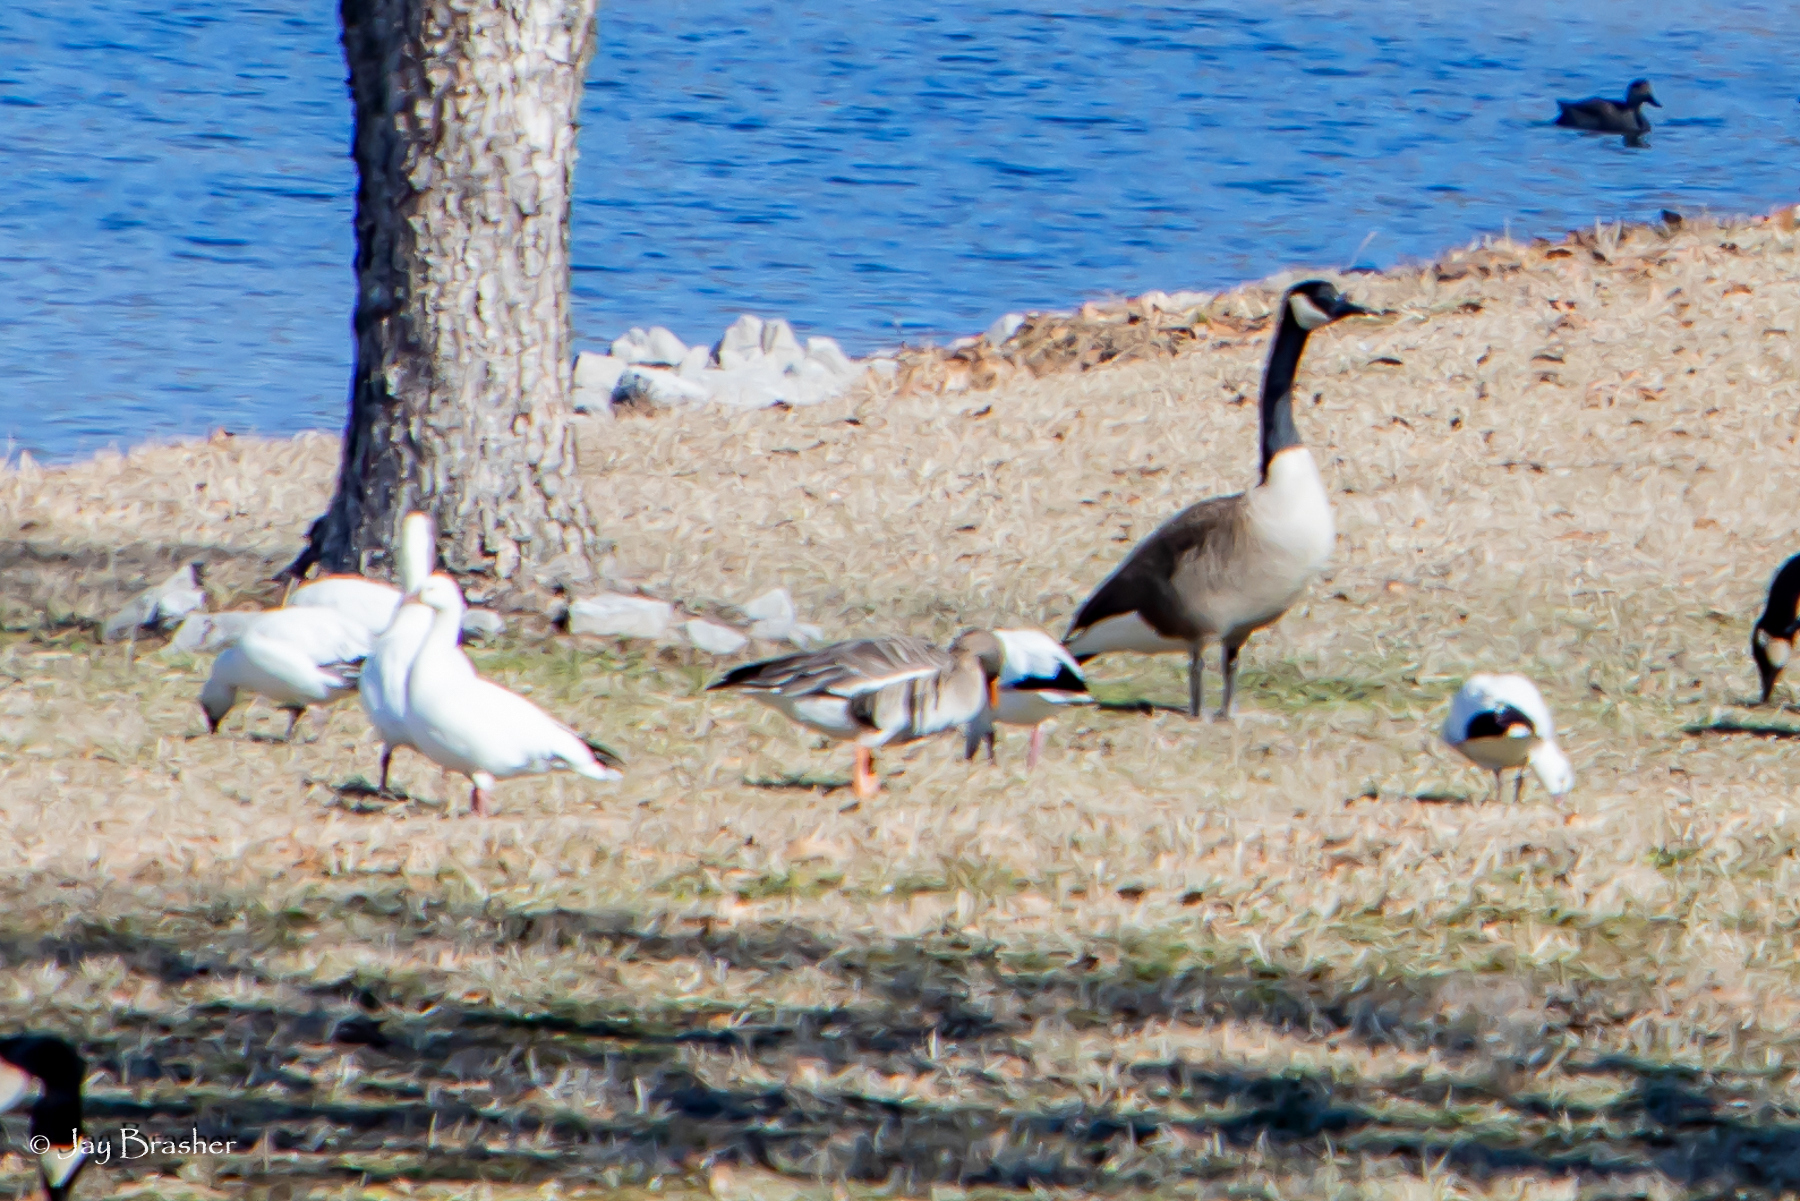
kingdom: Animalia
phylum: Chordata
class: Aves
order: Anseriformes
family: Anatidae
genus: Anser
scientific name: Anser rossii
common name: Ross's goose
